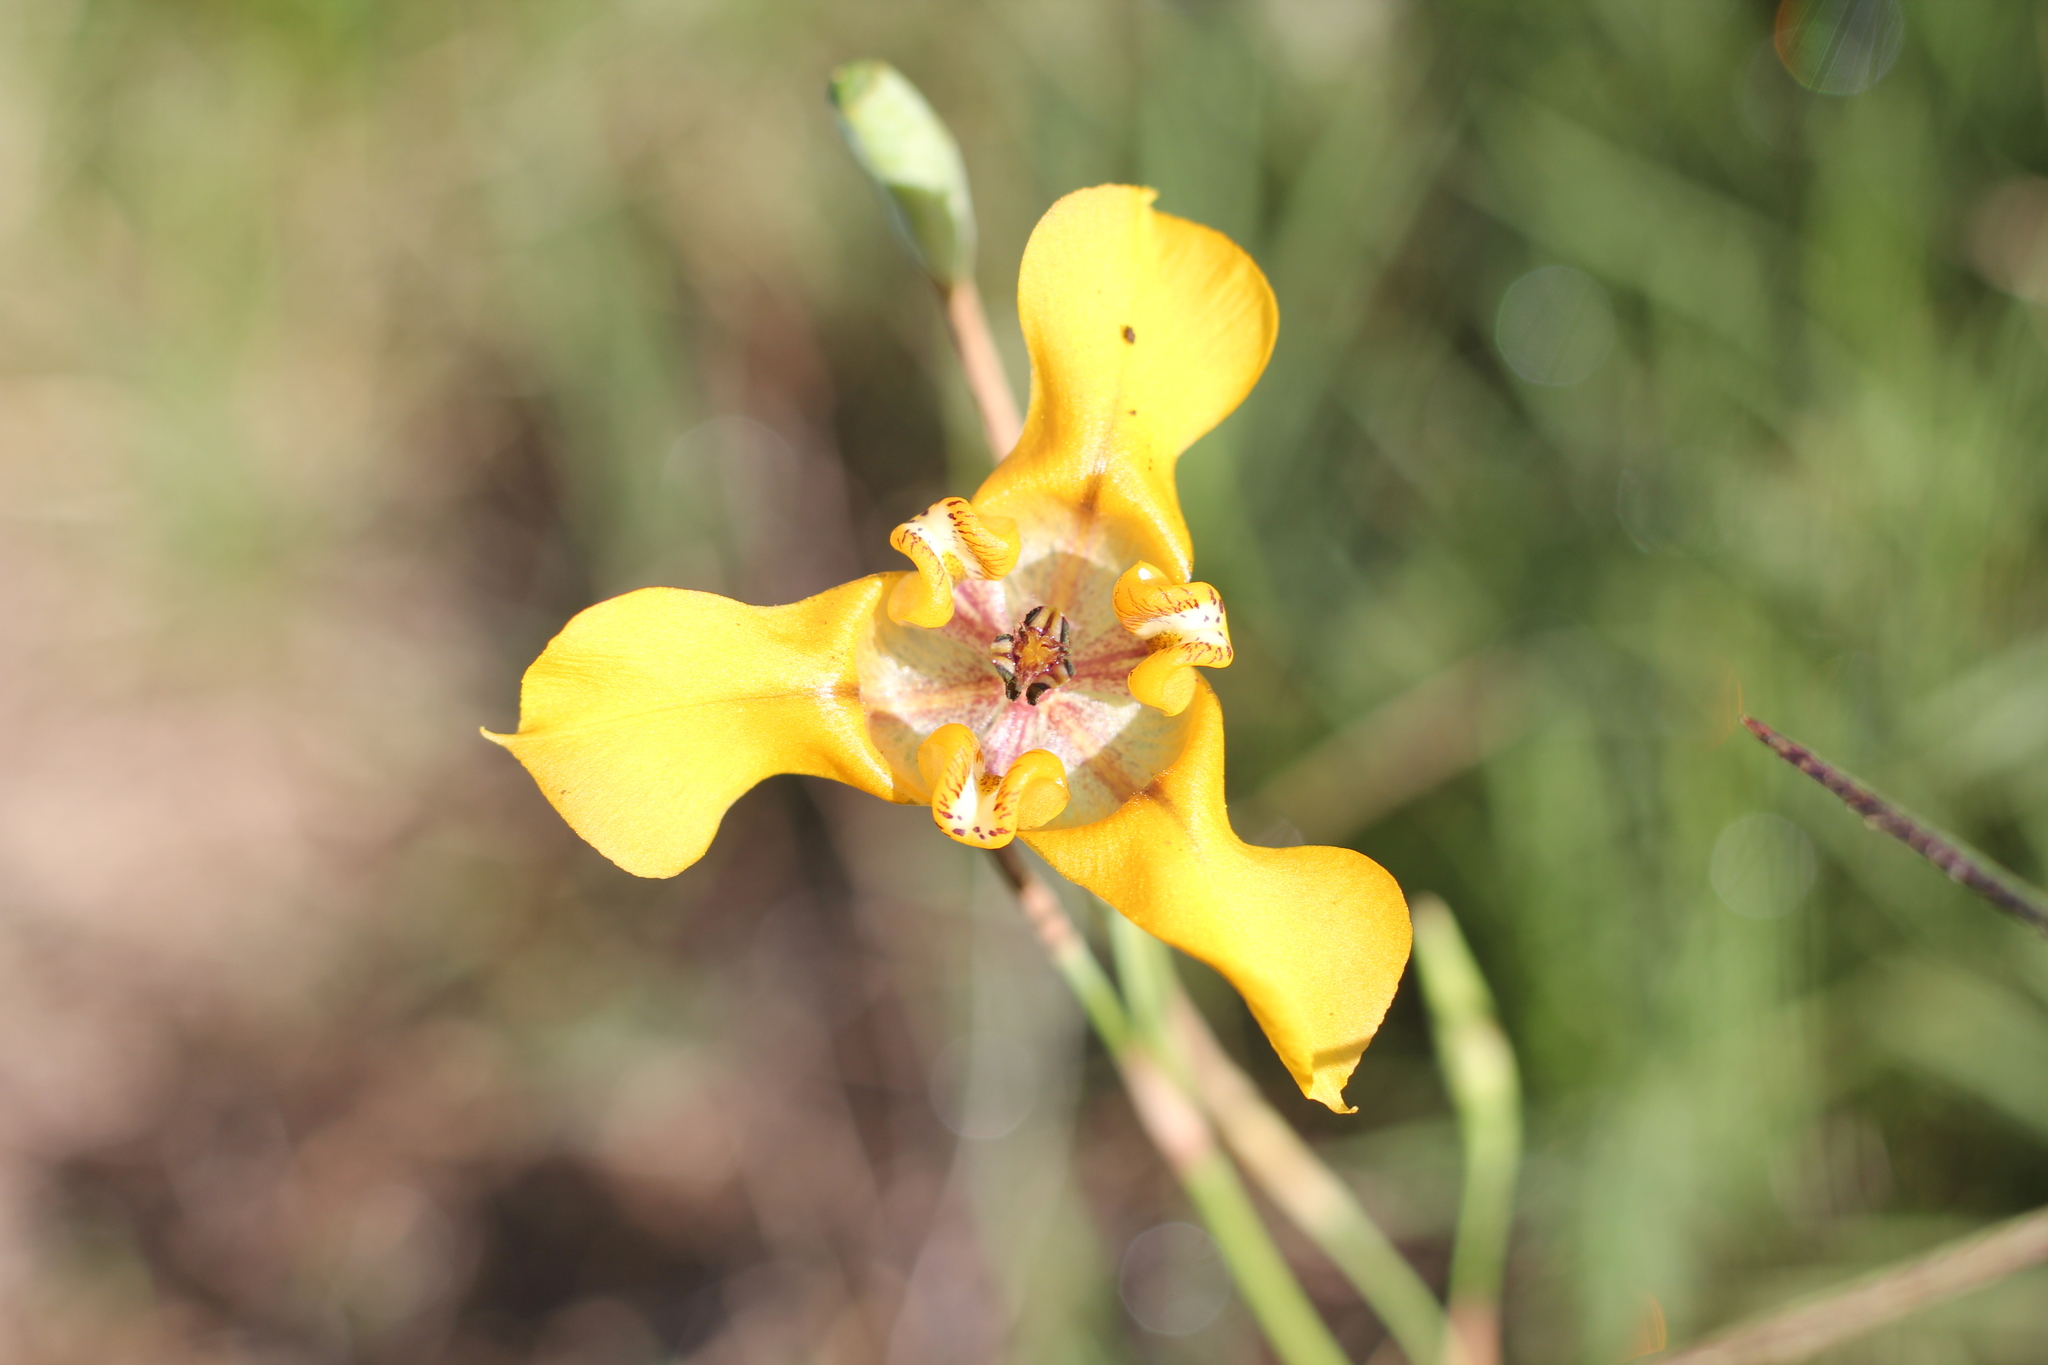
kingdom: Plantae
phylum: Tracheophyta
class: Liliopsida
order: Asparagales
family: Iridaceae
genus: Cypella
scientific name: Cypella herbertii
